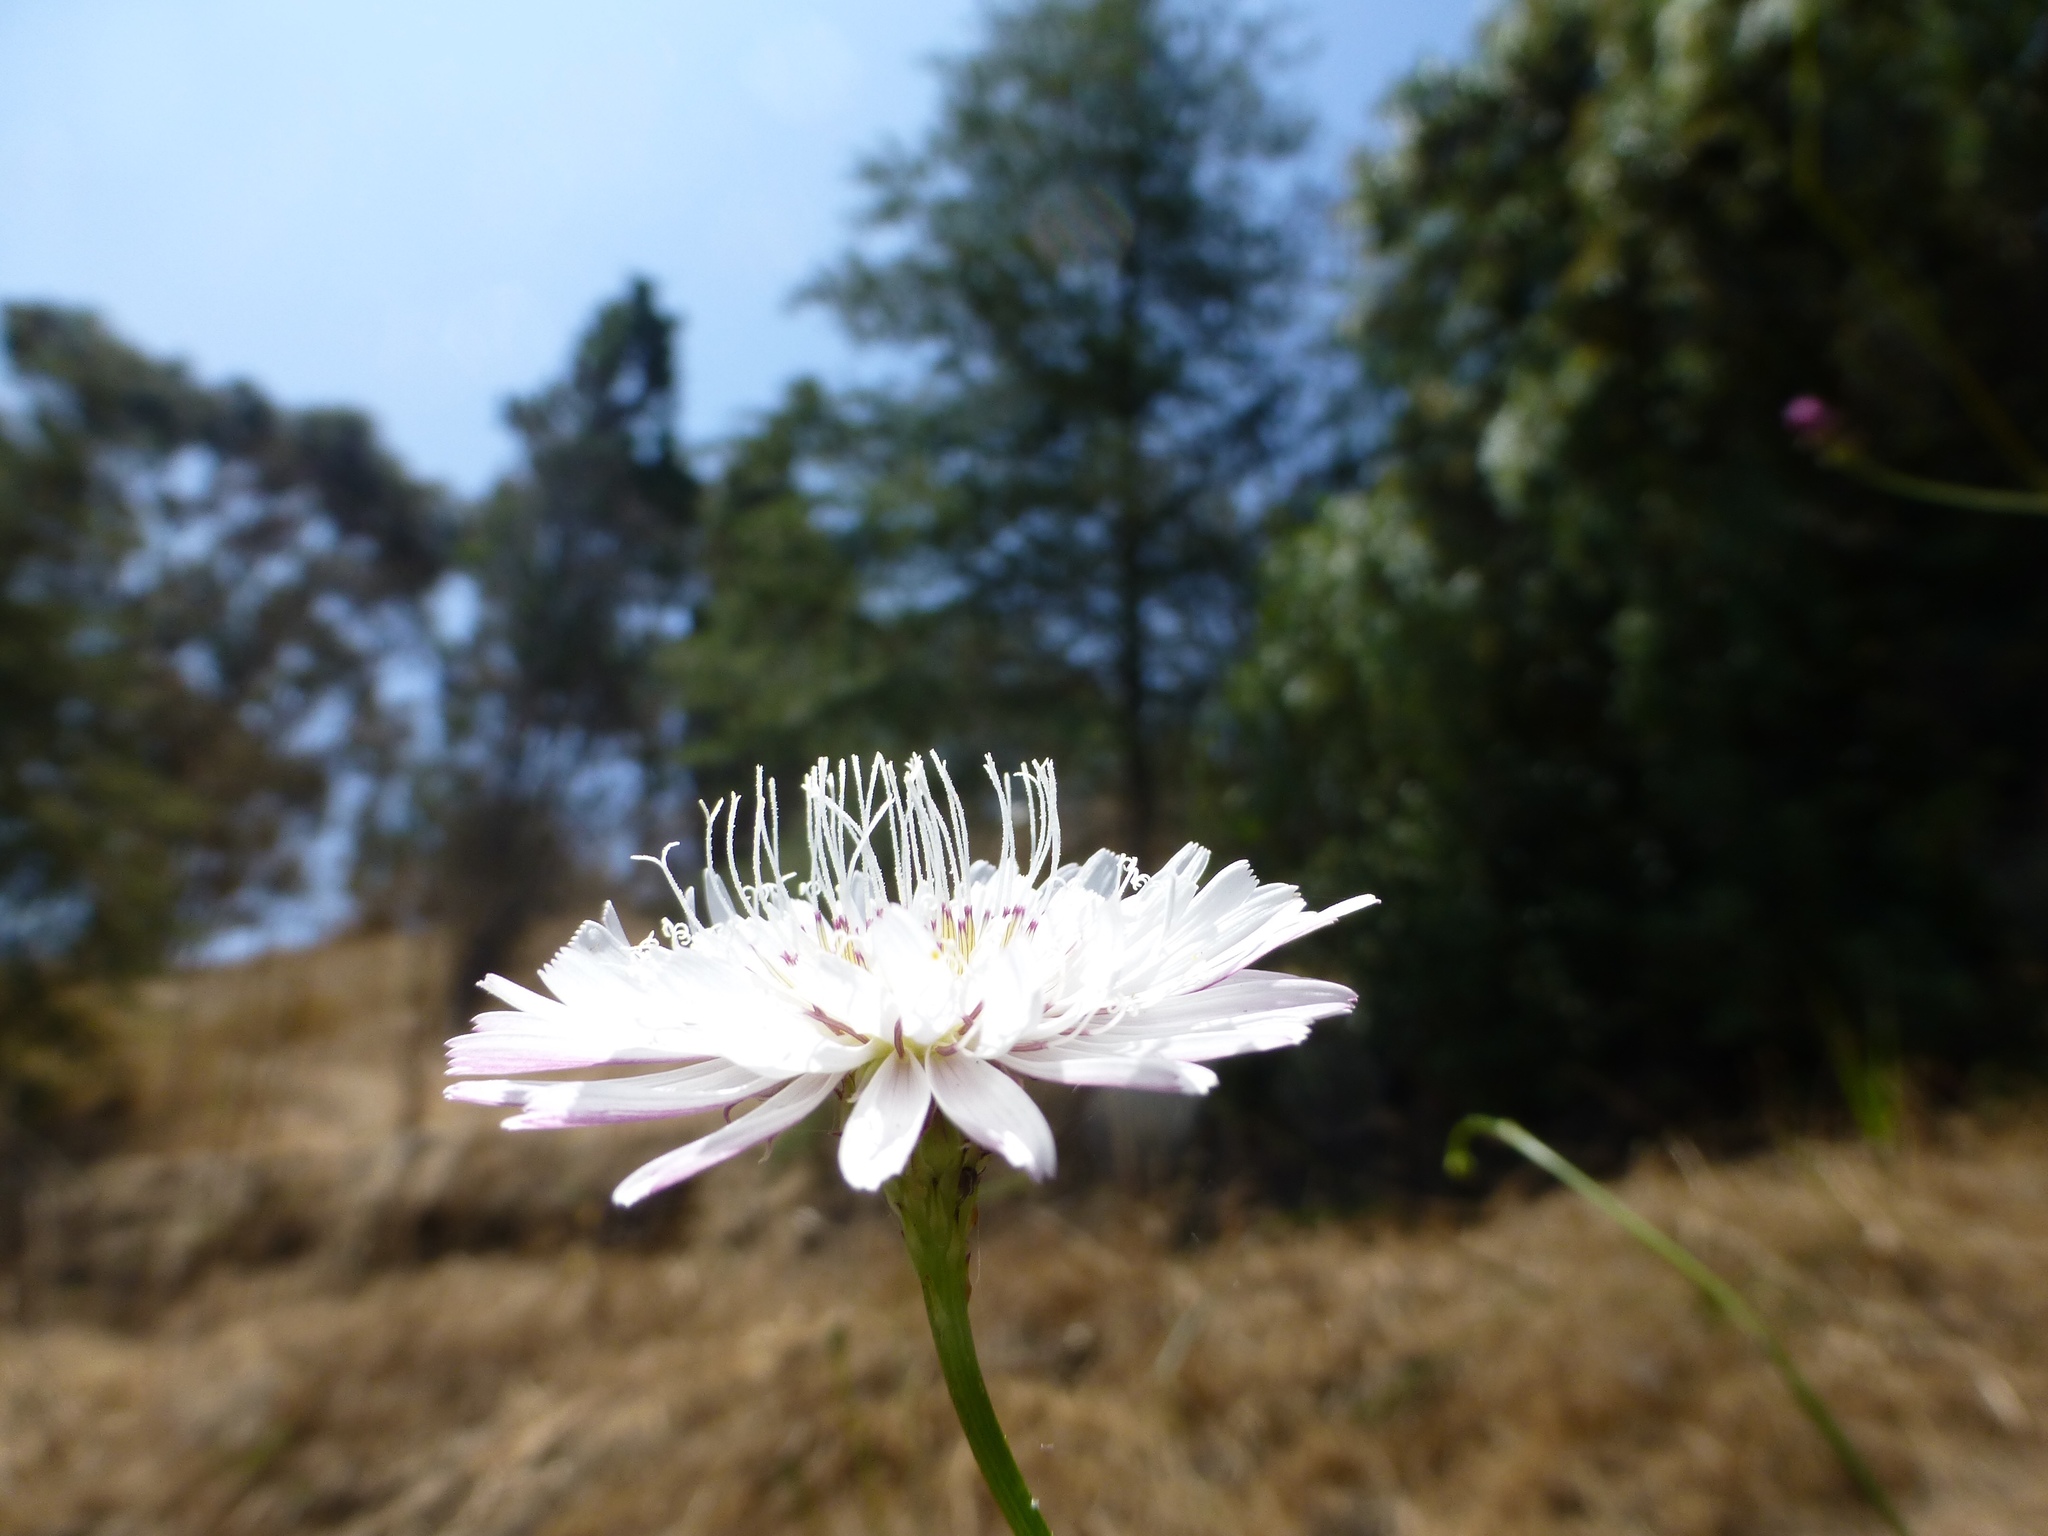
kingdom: Plantae
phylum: Tracheophyta
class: Magnoliopsida
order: Asterales
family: Asteraceae
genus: Malacothrix
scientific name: Malacothrix saxatilis
